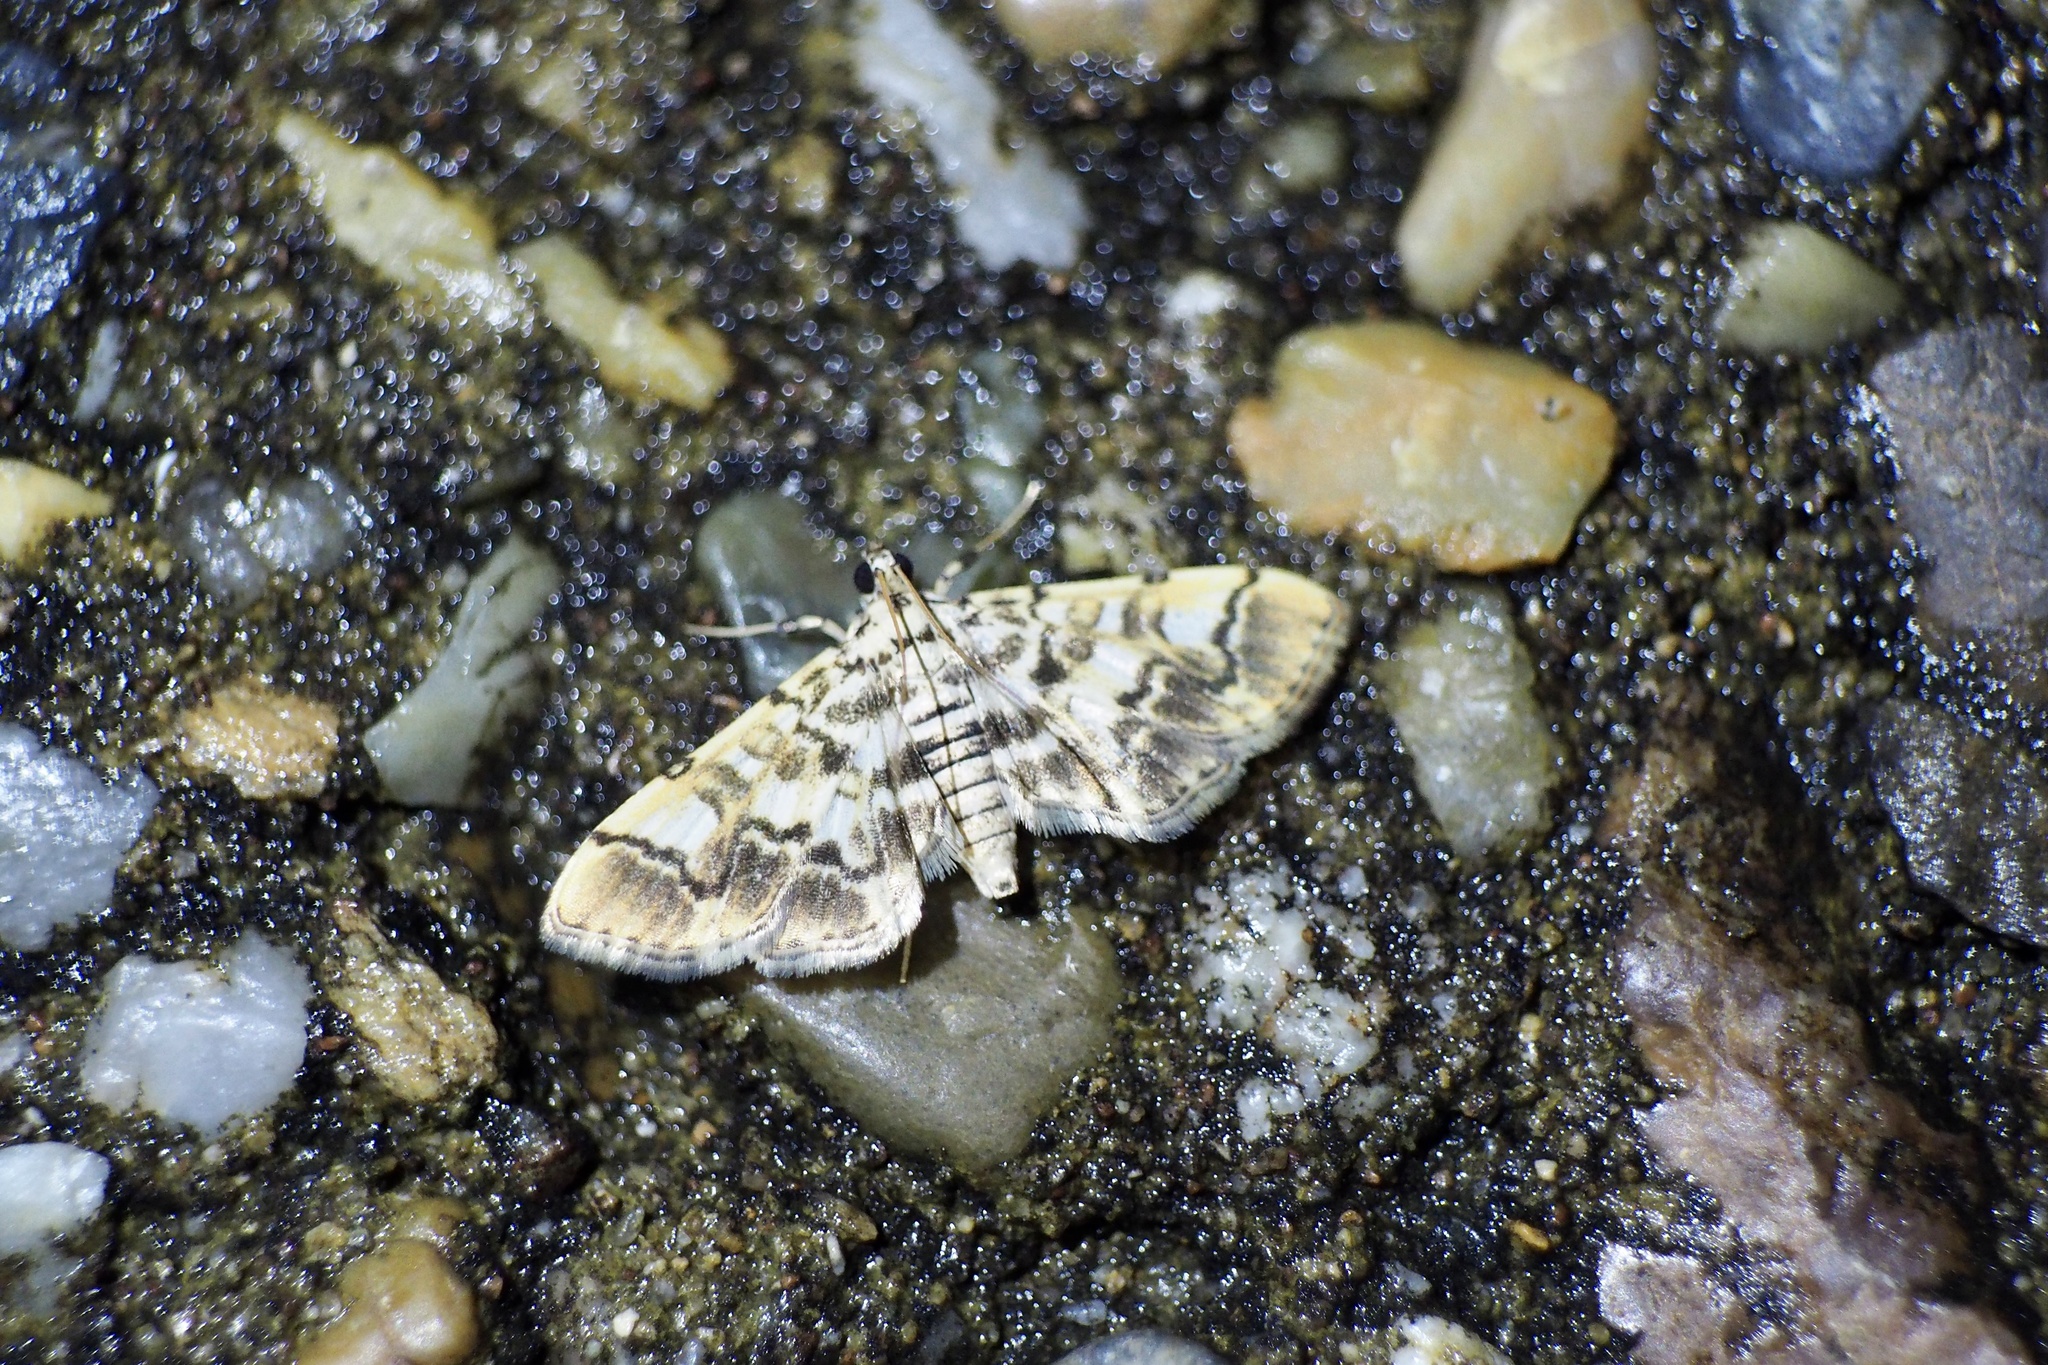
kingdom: Animalia
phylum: Arthropoda
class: Insecta
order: Lepidoptera
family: Crambidae
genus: Lamprosema
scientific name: Lamprosema commixta
